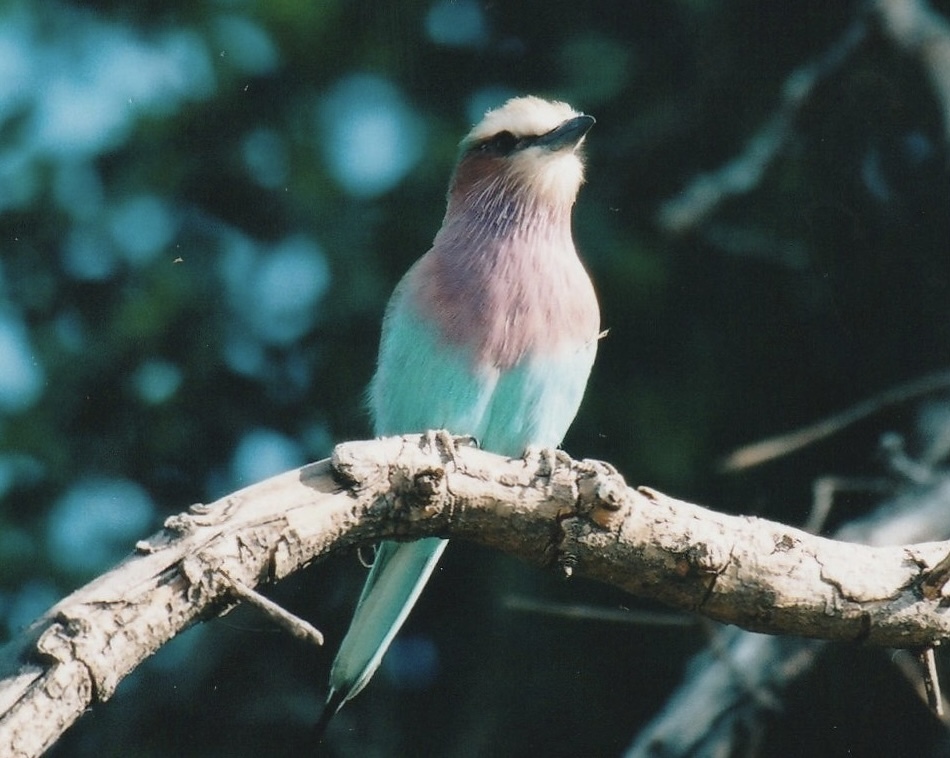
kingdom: Animalia
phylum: Chordata
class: Aves
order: Coraciiformes
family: Coraciidae
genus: Coracias
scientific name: Coracias caudatus
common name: Lilac-breasted roller
